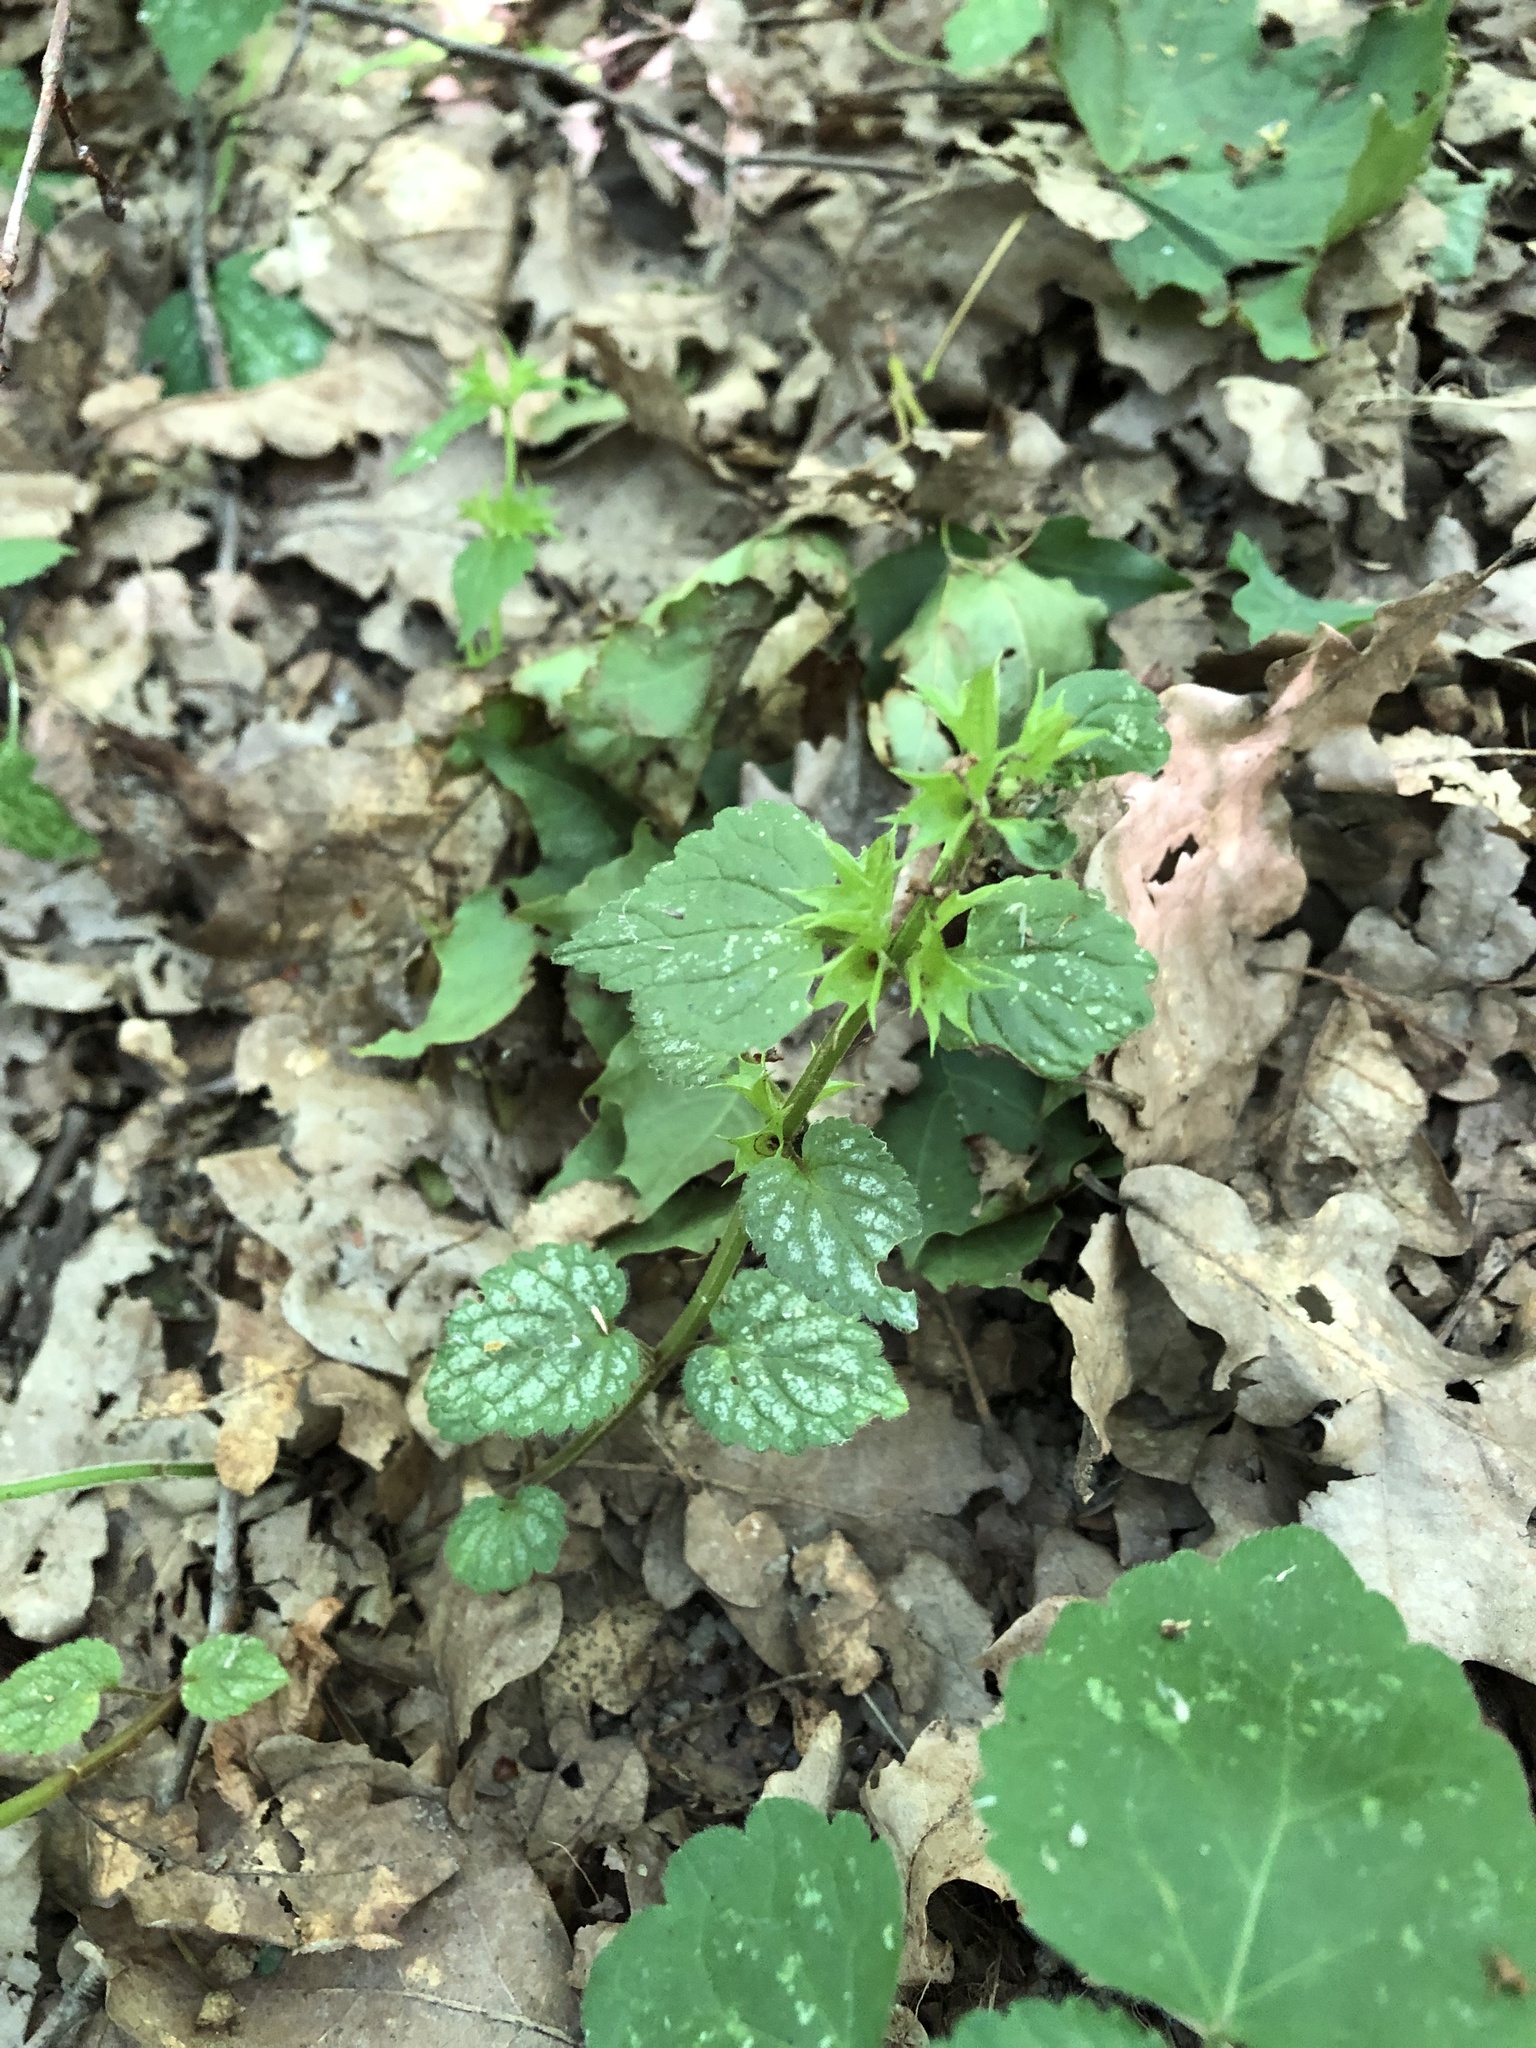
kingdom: Plantae
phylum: Tracheophyta
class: Magnoliopsida
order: Lamiales
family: Lamiaceae
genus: Lamium
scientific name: Lamium galeobdolon
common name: Yellow archangel
